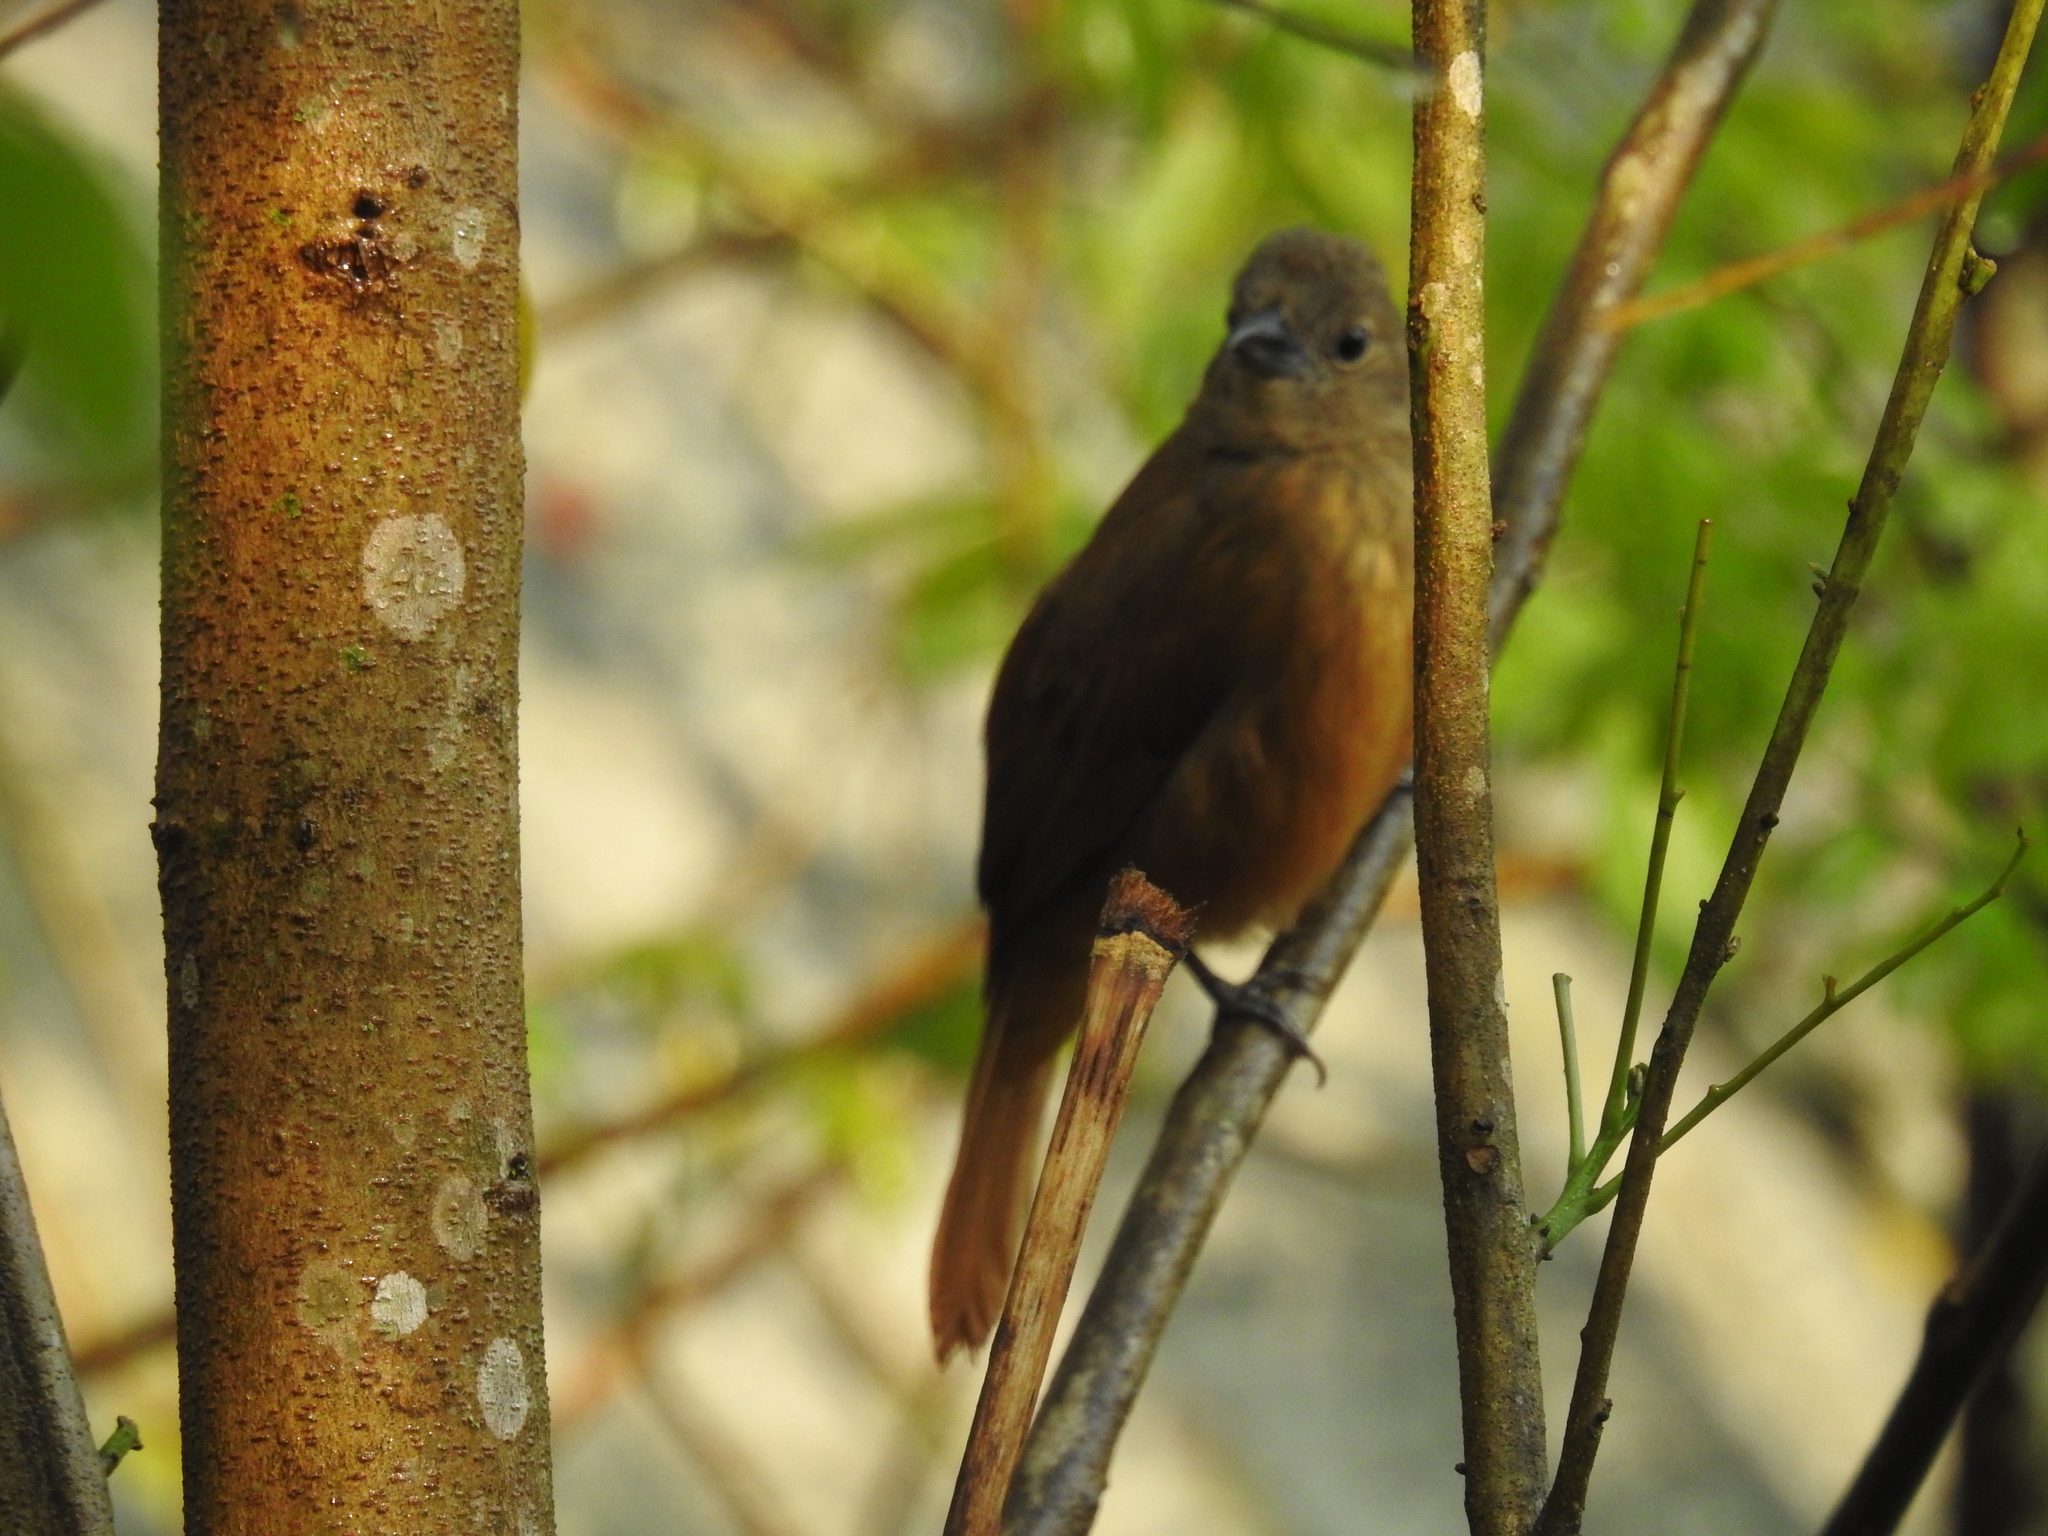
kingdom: Animalia
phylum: Chordata
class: Aves
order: Passeriformes
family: Thraupidae
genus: Tachyphonus
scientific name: Tachyphonus coronatus
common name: Ruby-crowned tanager
